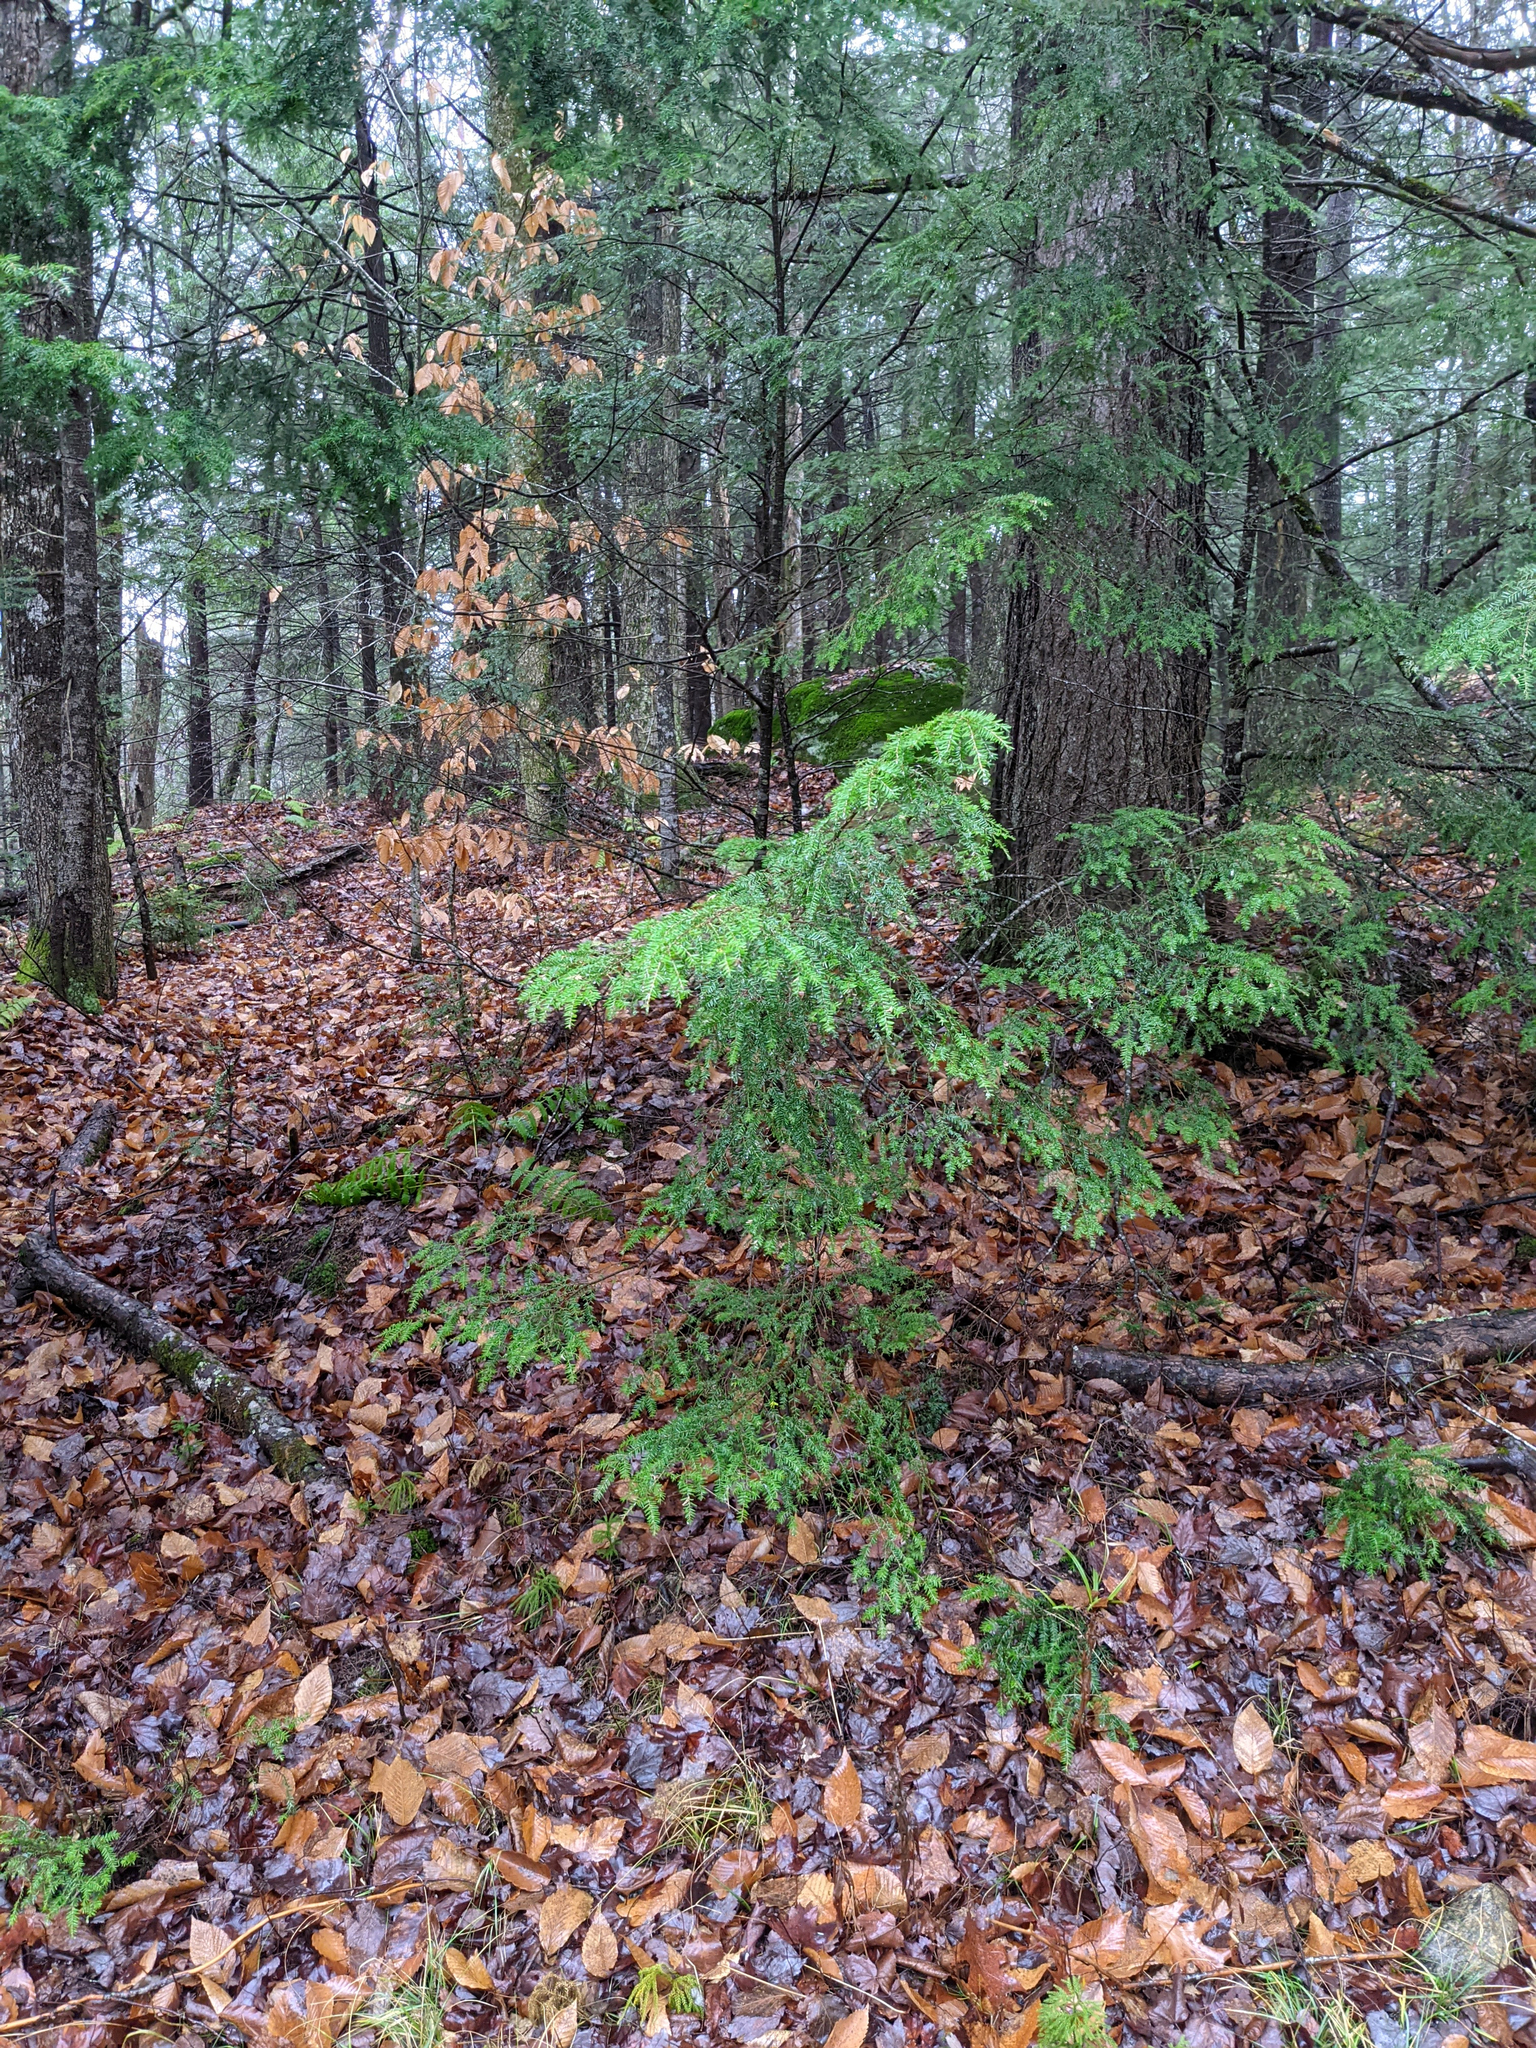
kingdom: Plantae
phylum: Tracheophyta
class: Pinopsida
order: Pinales
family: Pinaceae
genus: Tsuga
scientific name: Tsuga canadensis
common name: Eastern hemlock
